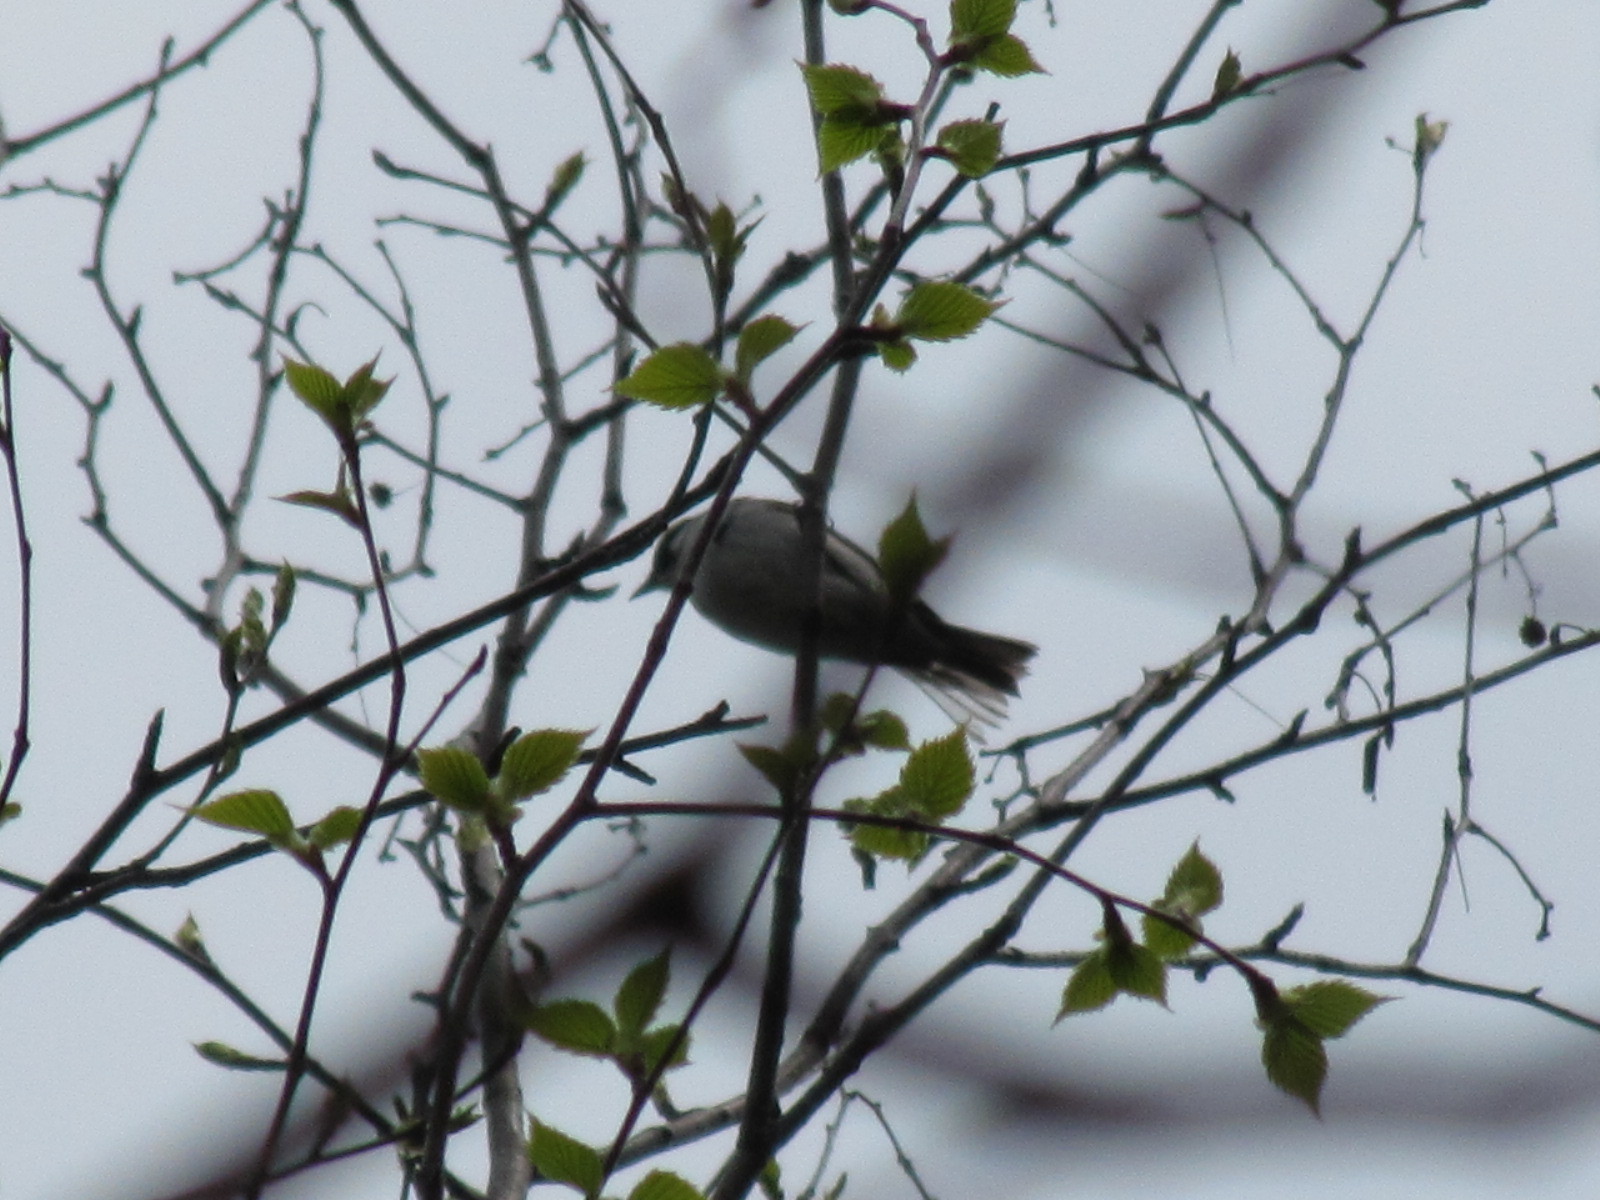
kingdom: Animalia
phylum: Chordata
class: Aves
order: Passeriformes
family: Paridae
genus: Poecile
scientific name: Poecile atricapillus
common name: Black-capped chickadee
